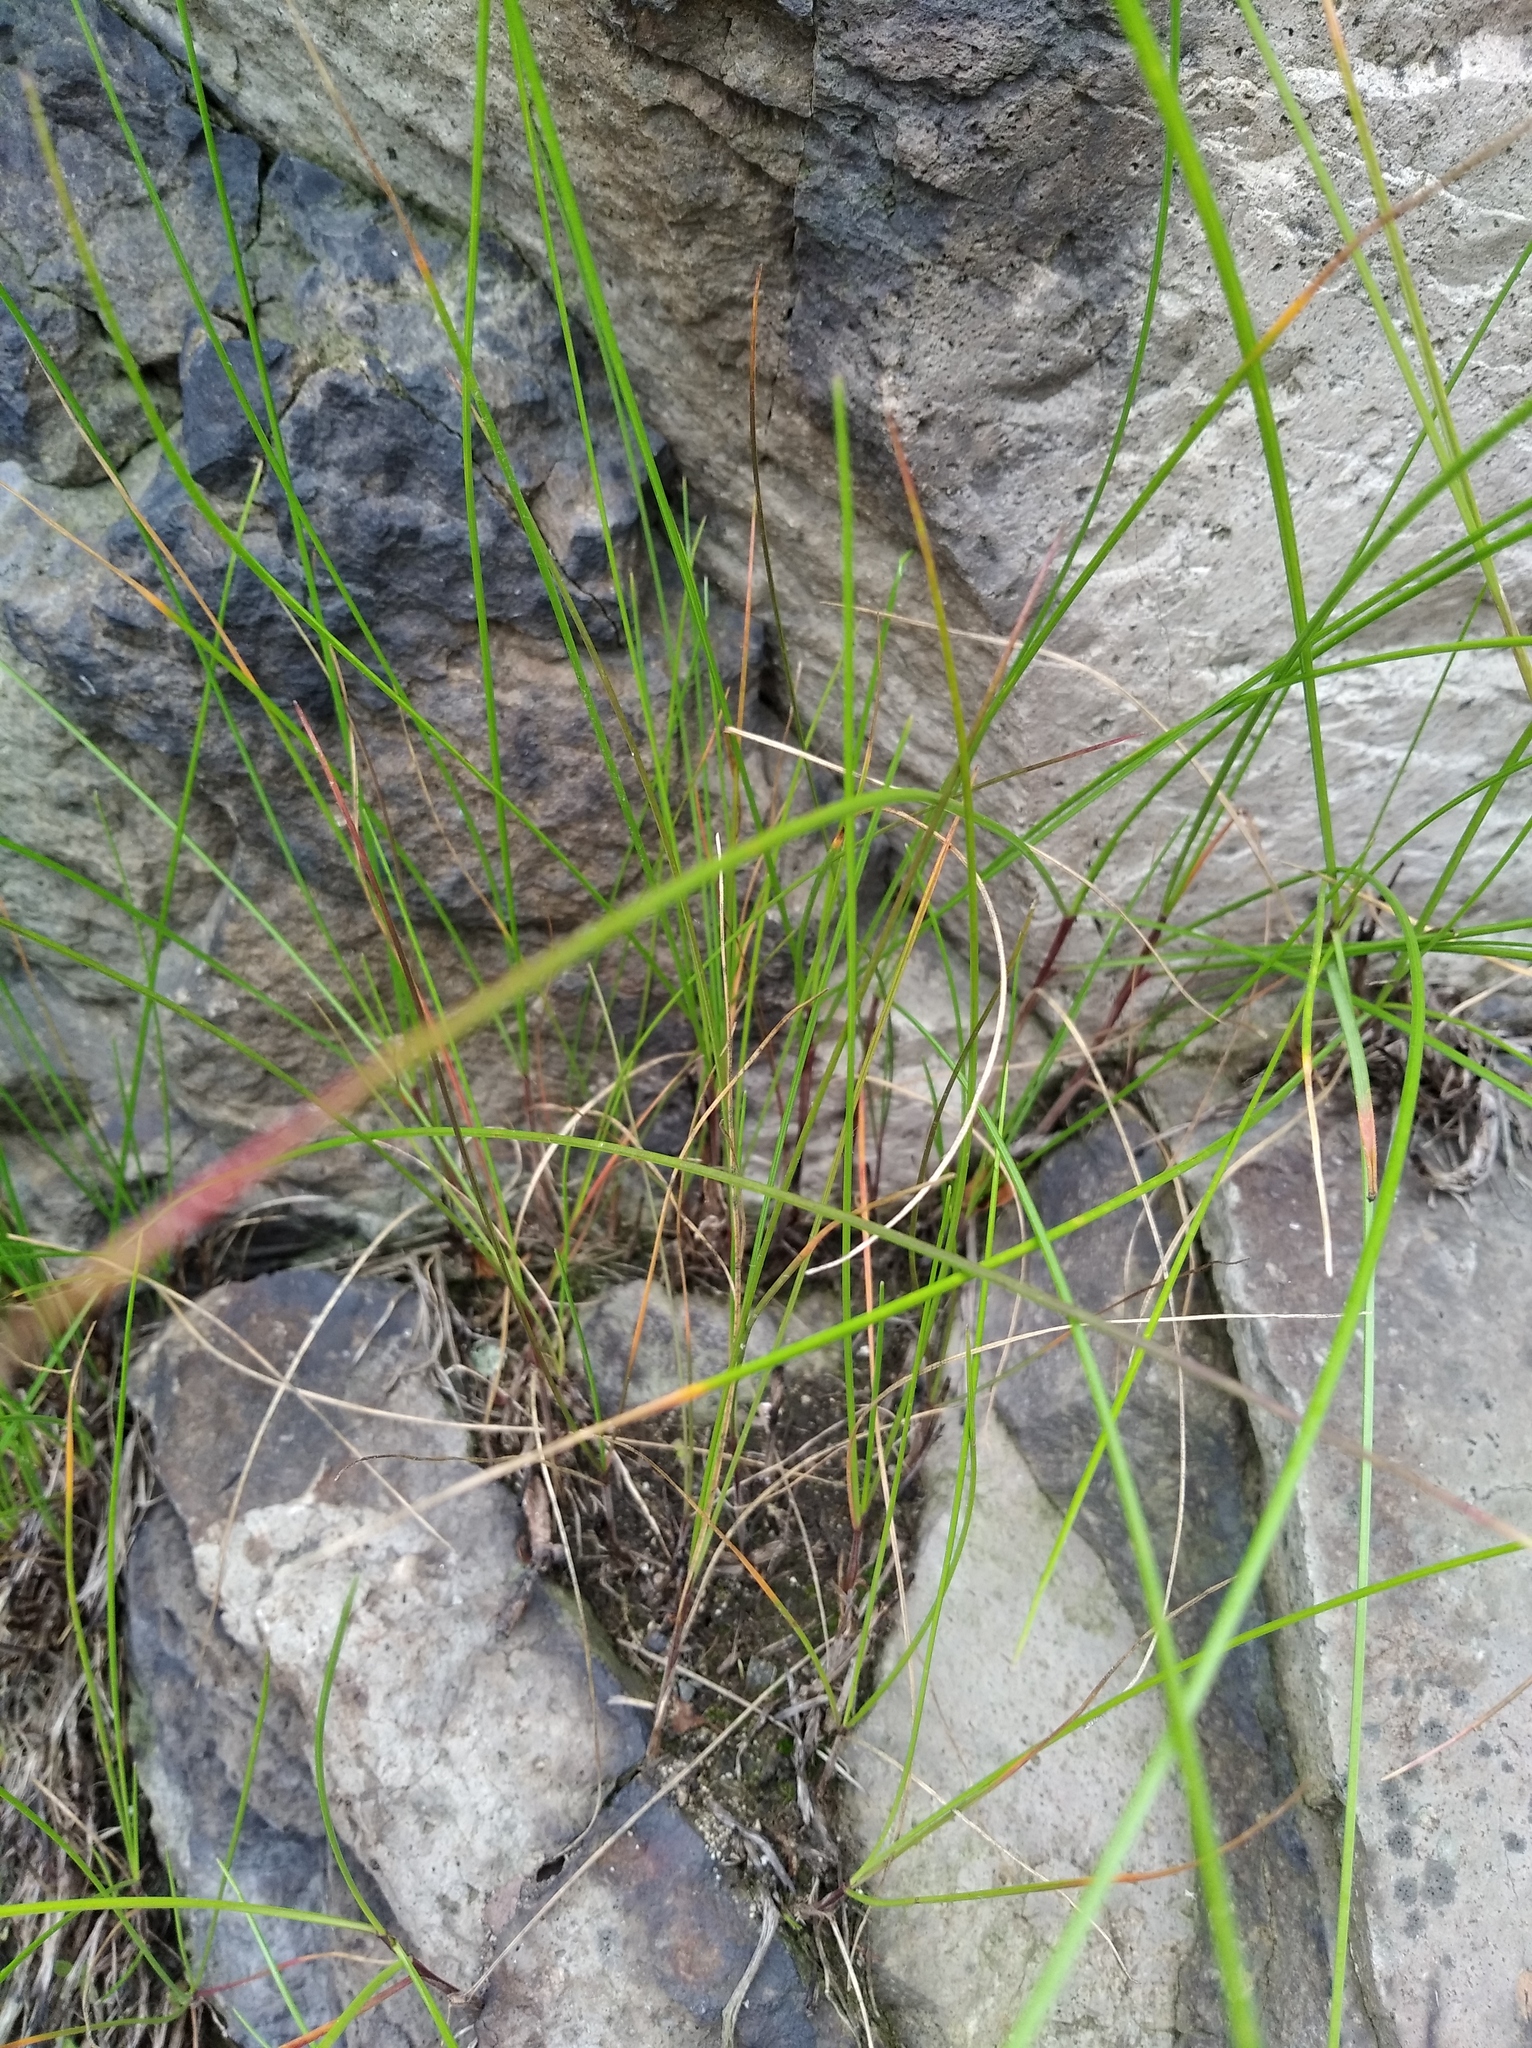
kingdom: Plantae
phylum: Tracheophyta
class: Liliopsida
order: Poales
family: Poaceae
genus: Festuca
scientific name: Festuca rubra
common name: Red fescue
